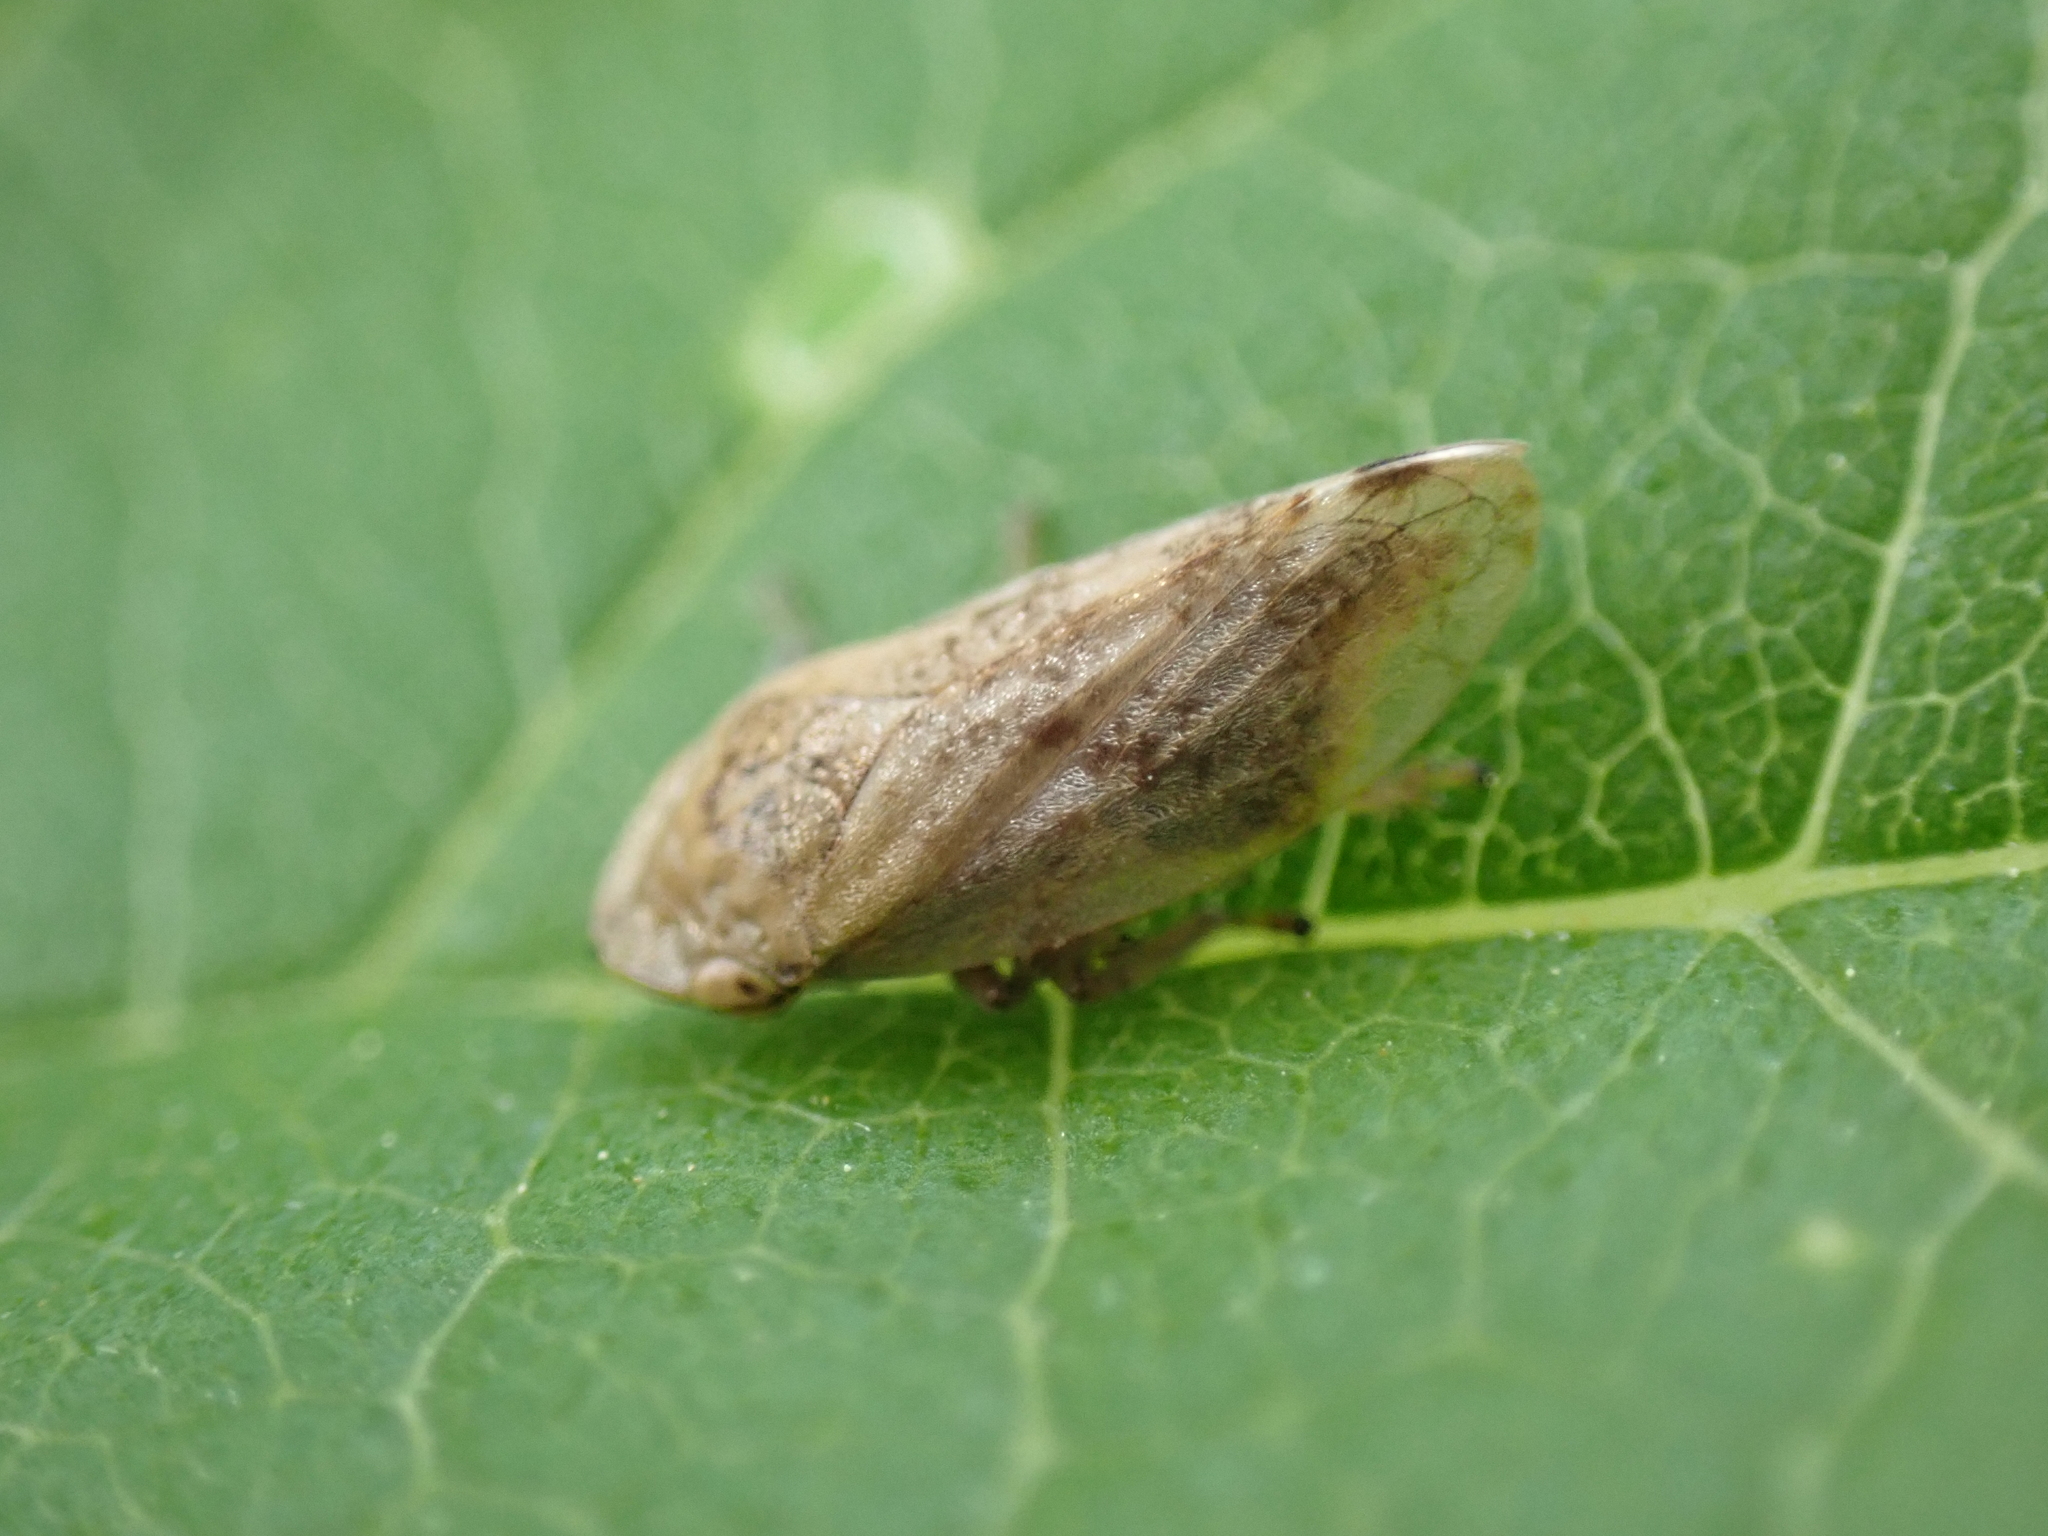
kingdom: Animalia
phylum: Arthropoda
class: Insecta
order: Hemiptera
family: Aphrophoridae
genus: Philaenus
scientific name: Philaenus spumarius
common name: Meadow spittlebug
